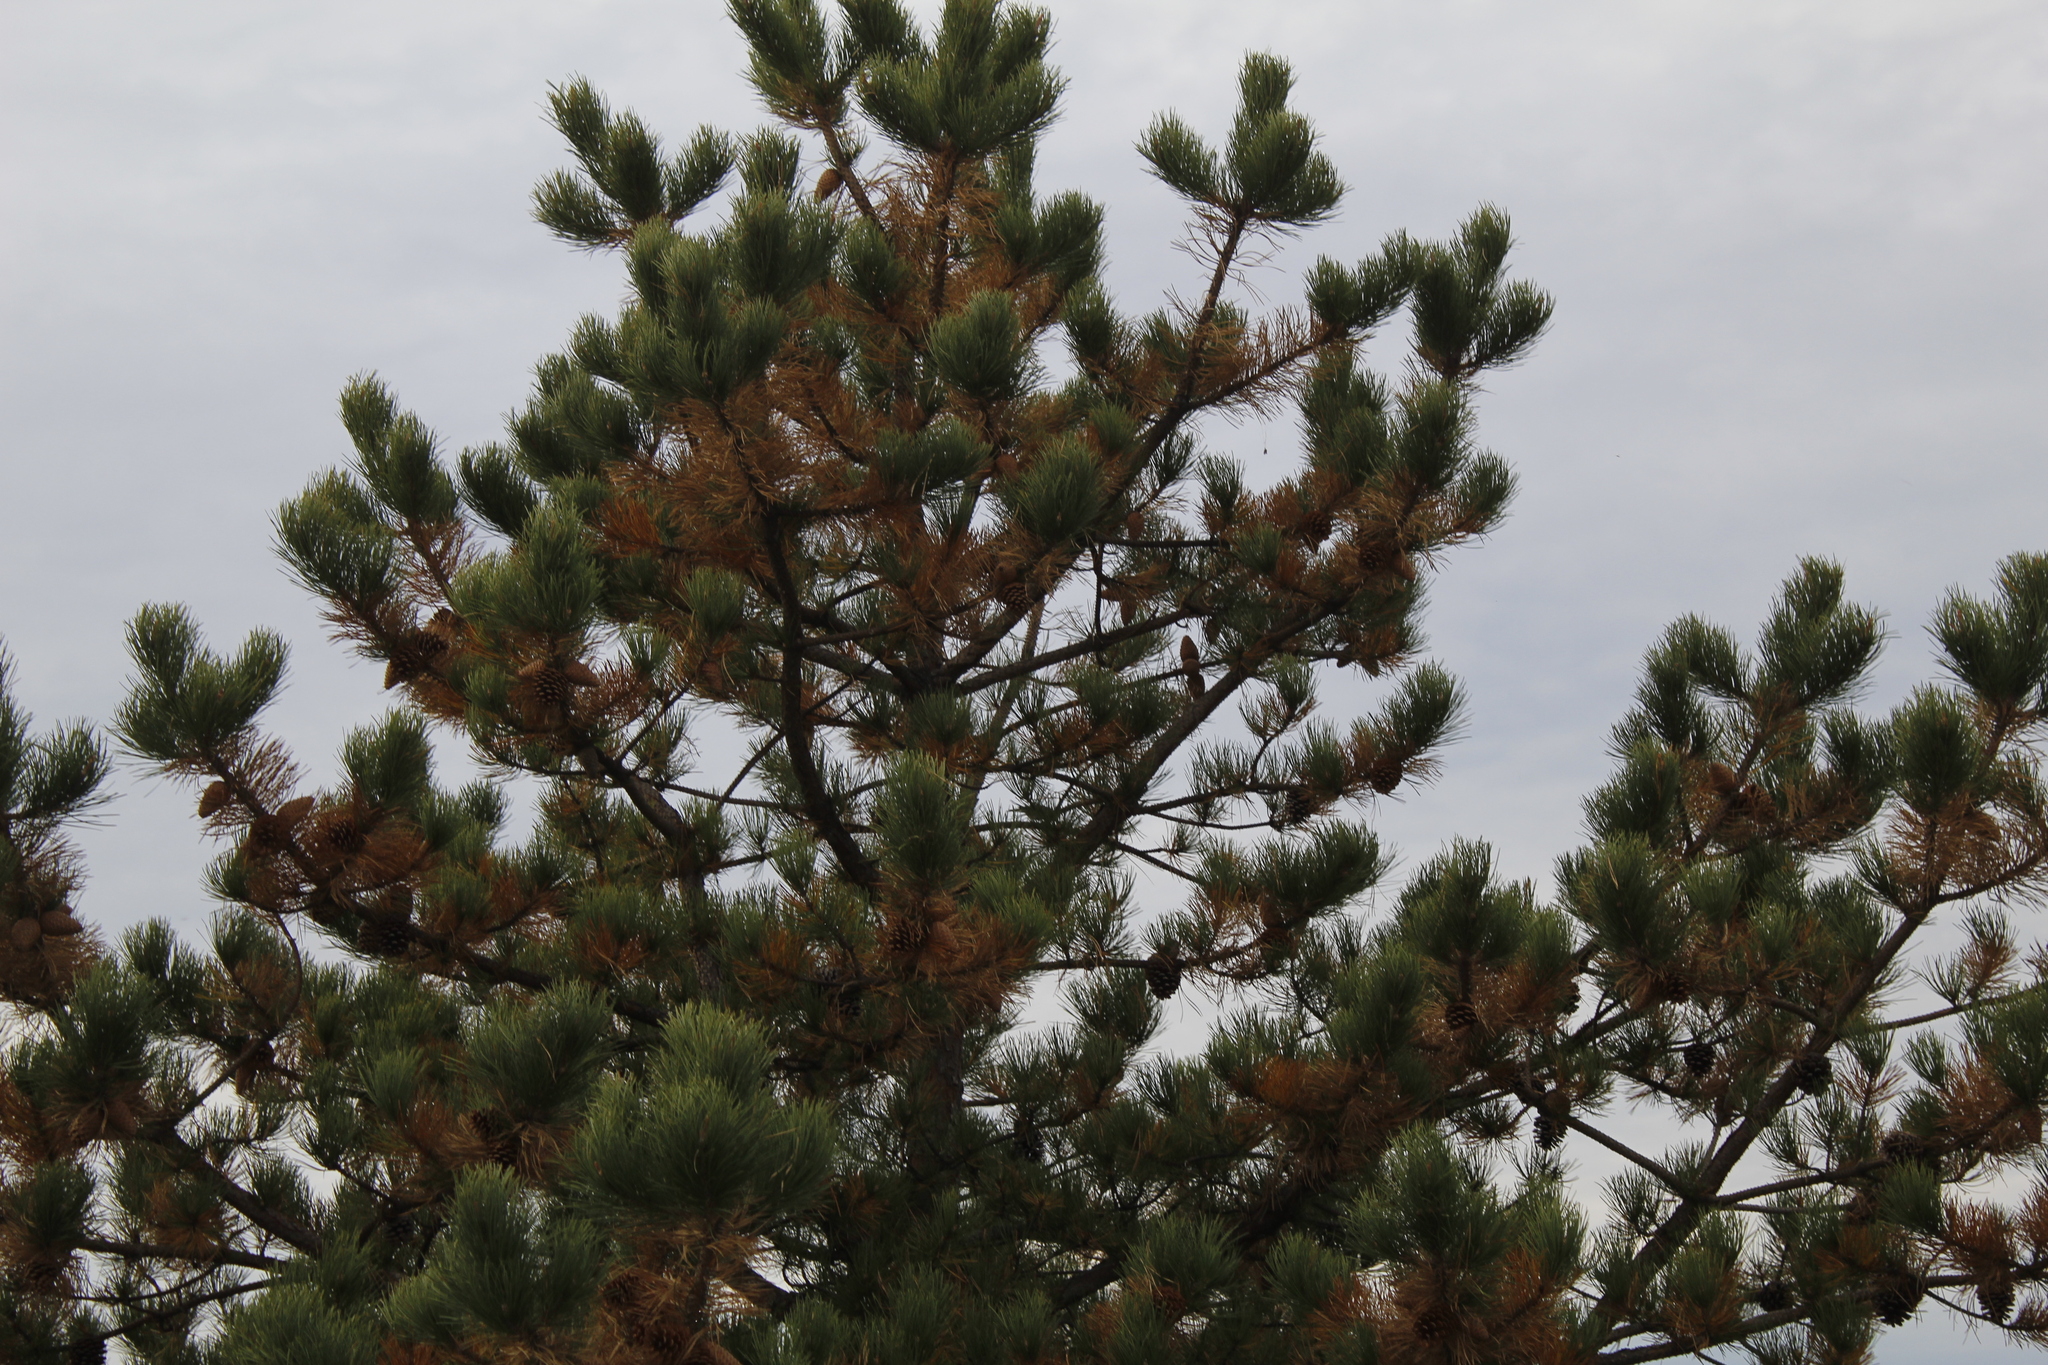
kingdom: Plantae
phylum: Tracheophyta
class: Pinopsida
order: Pinales
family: Pinaceae
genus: Pinus
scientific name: Pinus rigida
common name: Pitch pine
